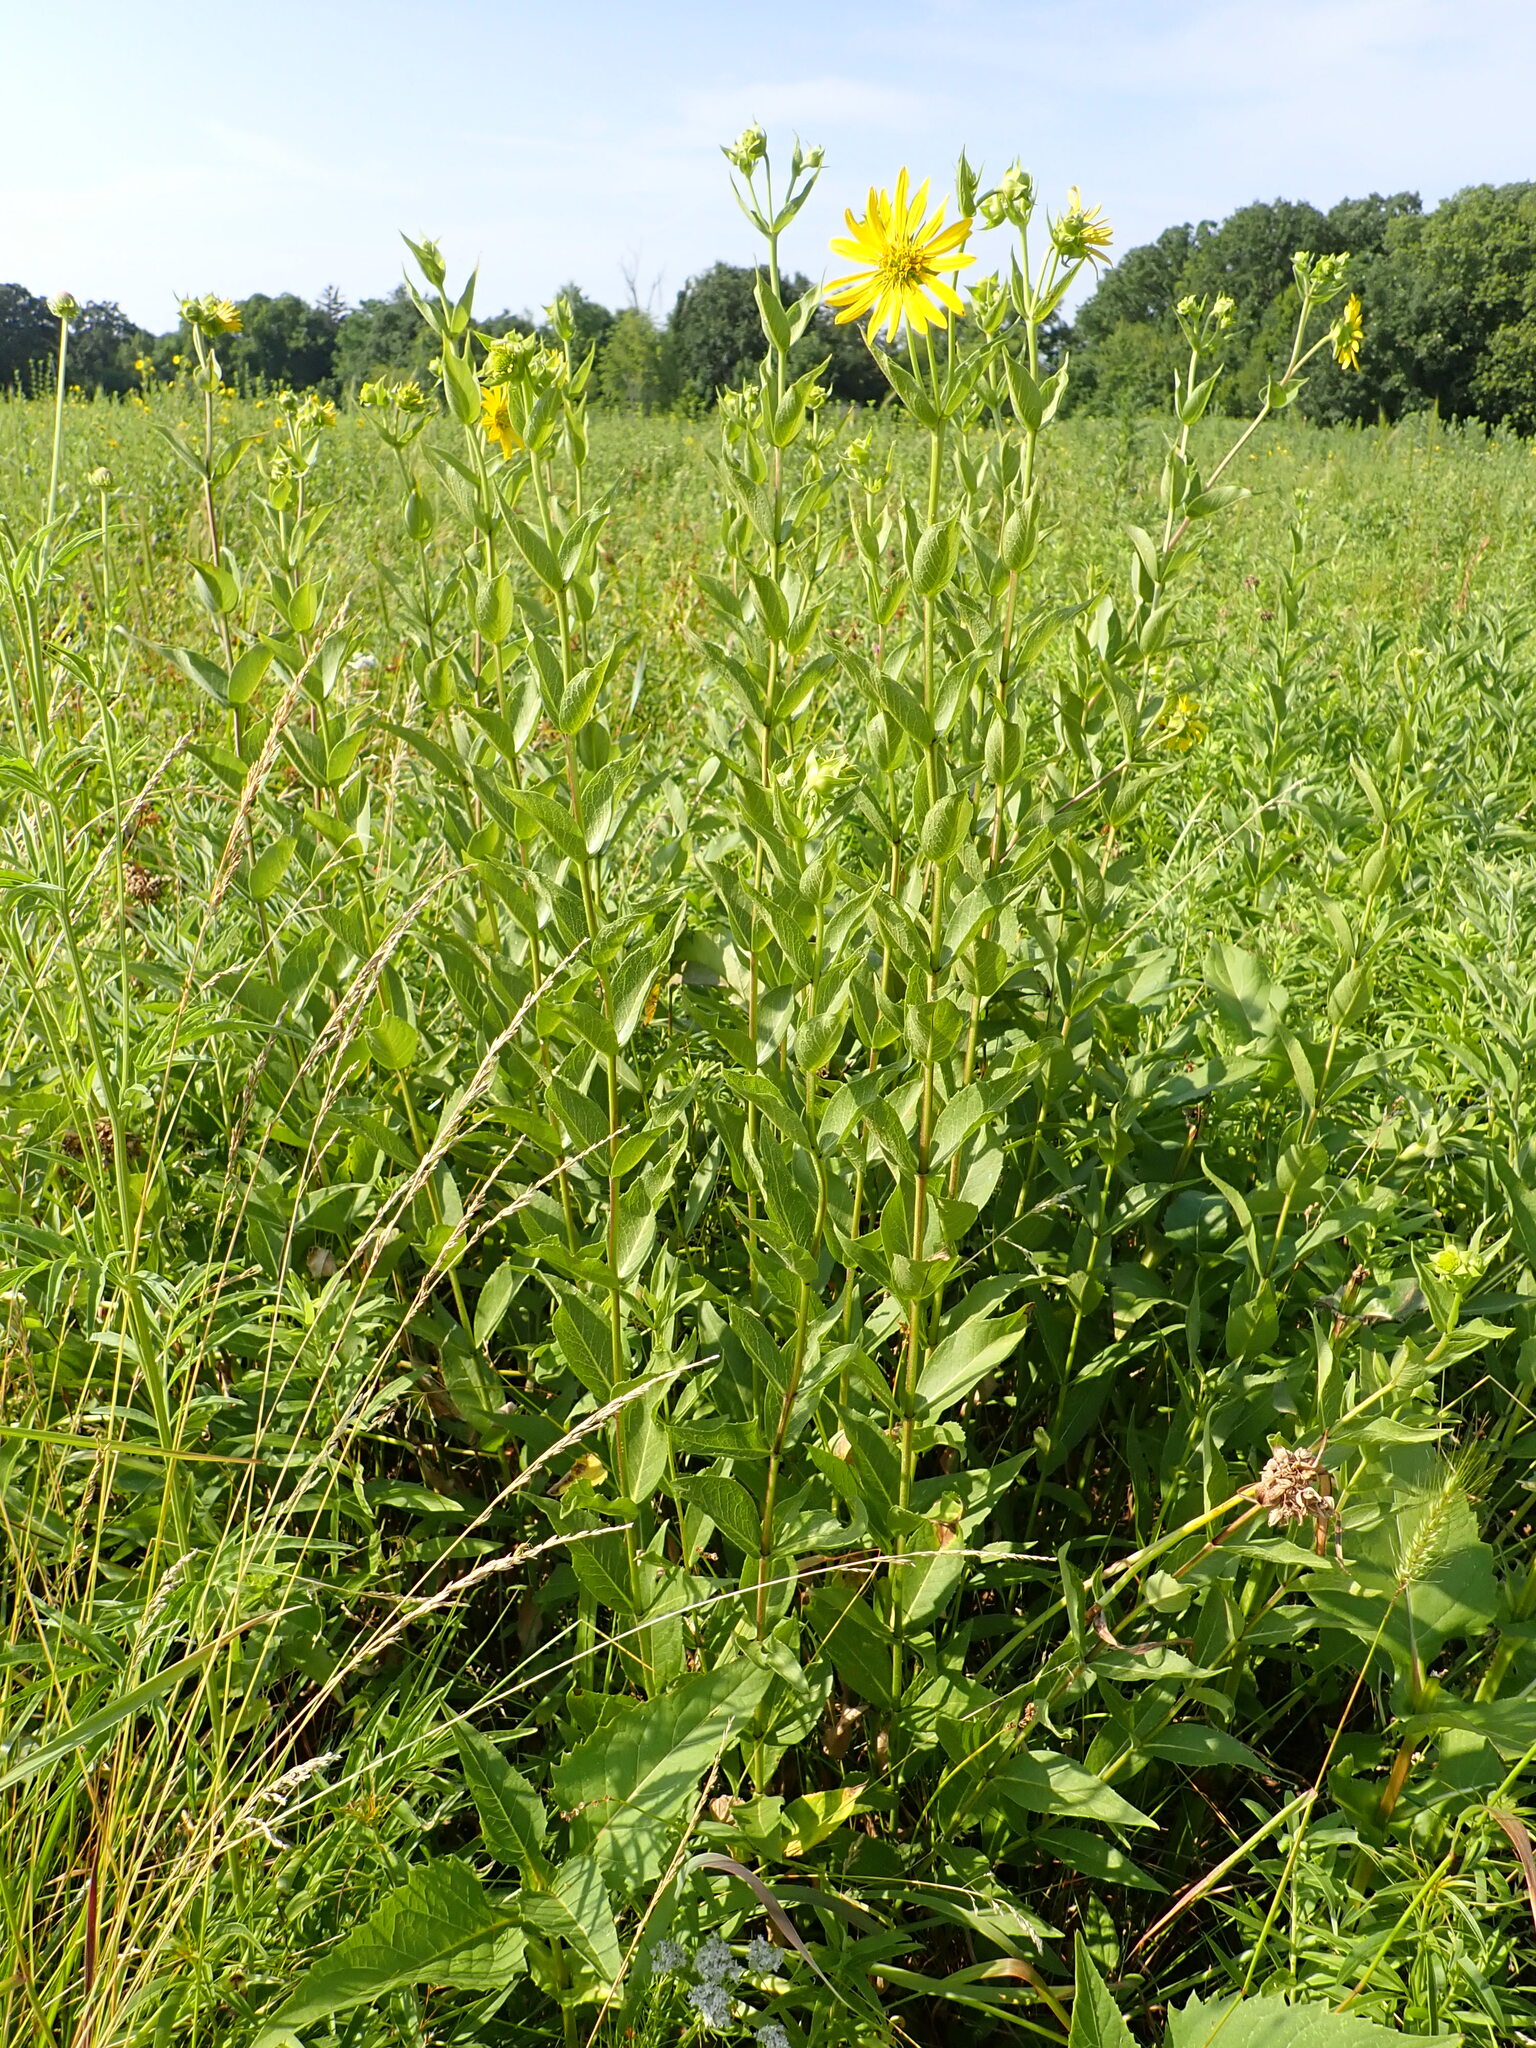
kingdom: Plantae
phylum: Tracheophyta
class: Magnoliopsida
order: Asterales
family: Asteraceae
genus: Silphium
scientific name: Silphium integrifolium
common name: Whole-leaf rosinweed
